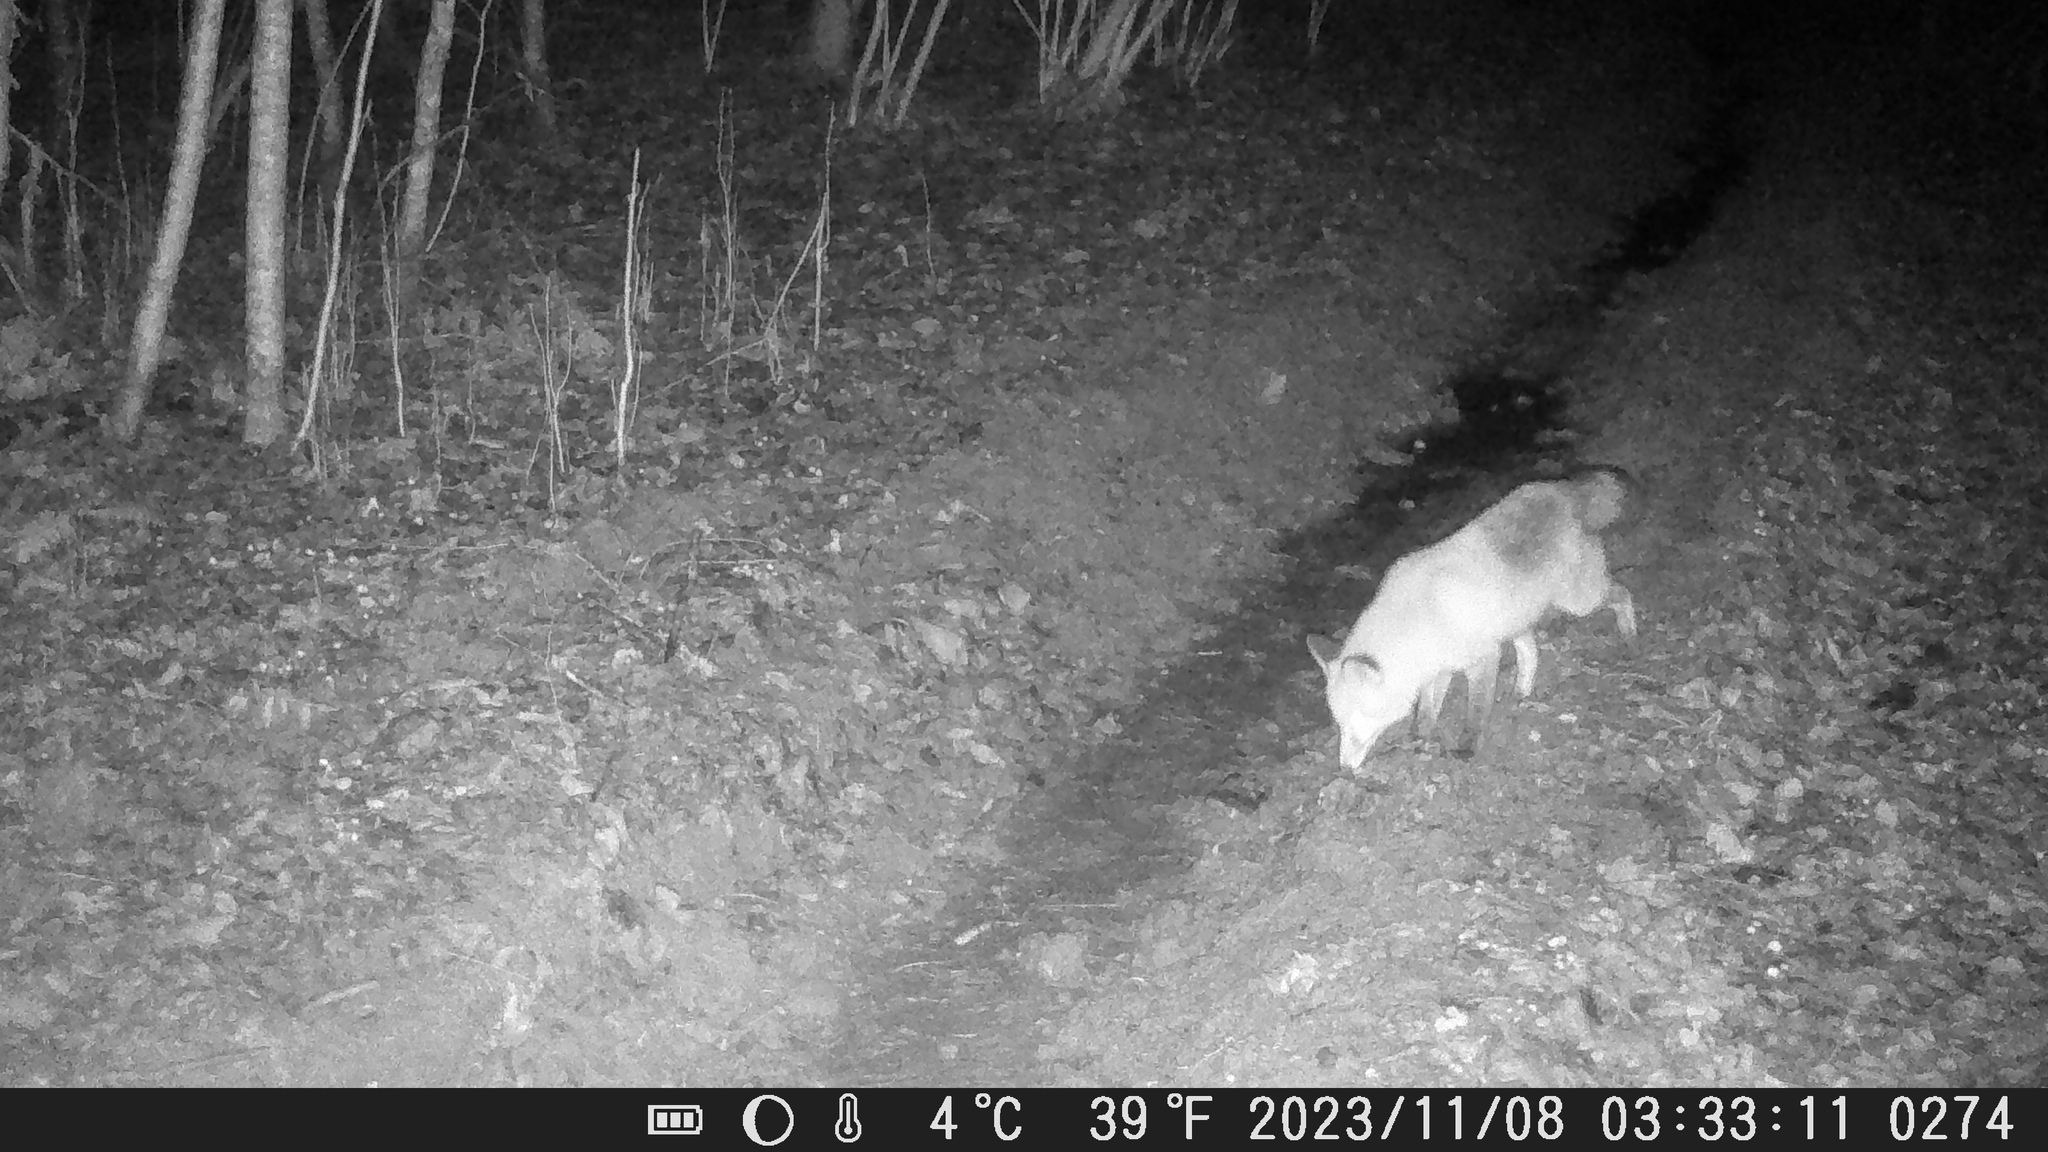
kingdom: Animalia
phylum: Chordata
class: Mammalia
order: Carnivora
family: Canidae
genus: Vulpes
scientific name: Vulpes vulpes
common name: Red fox
